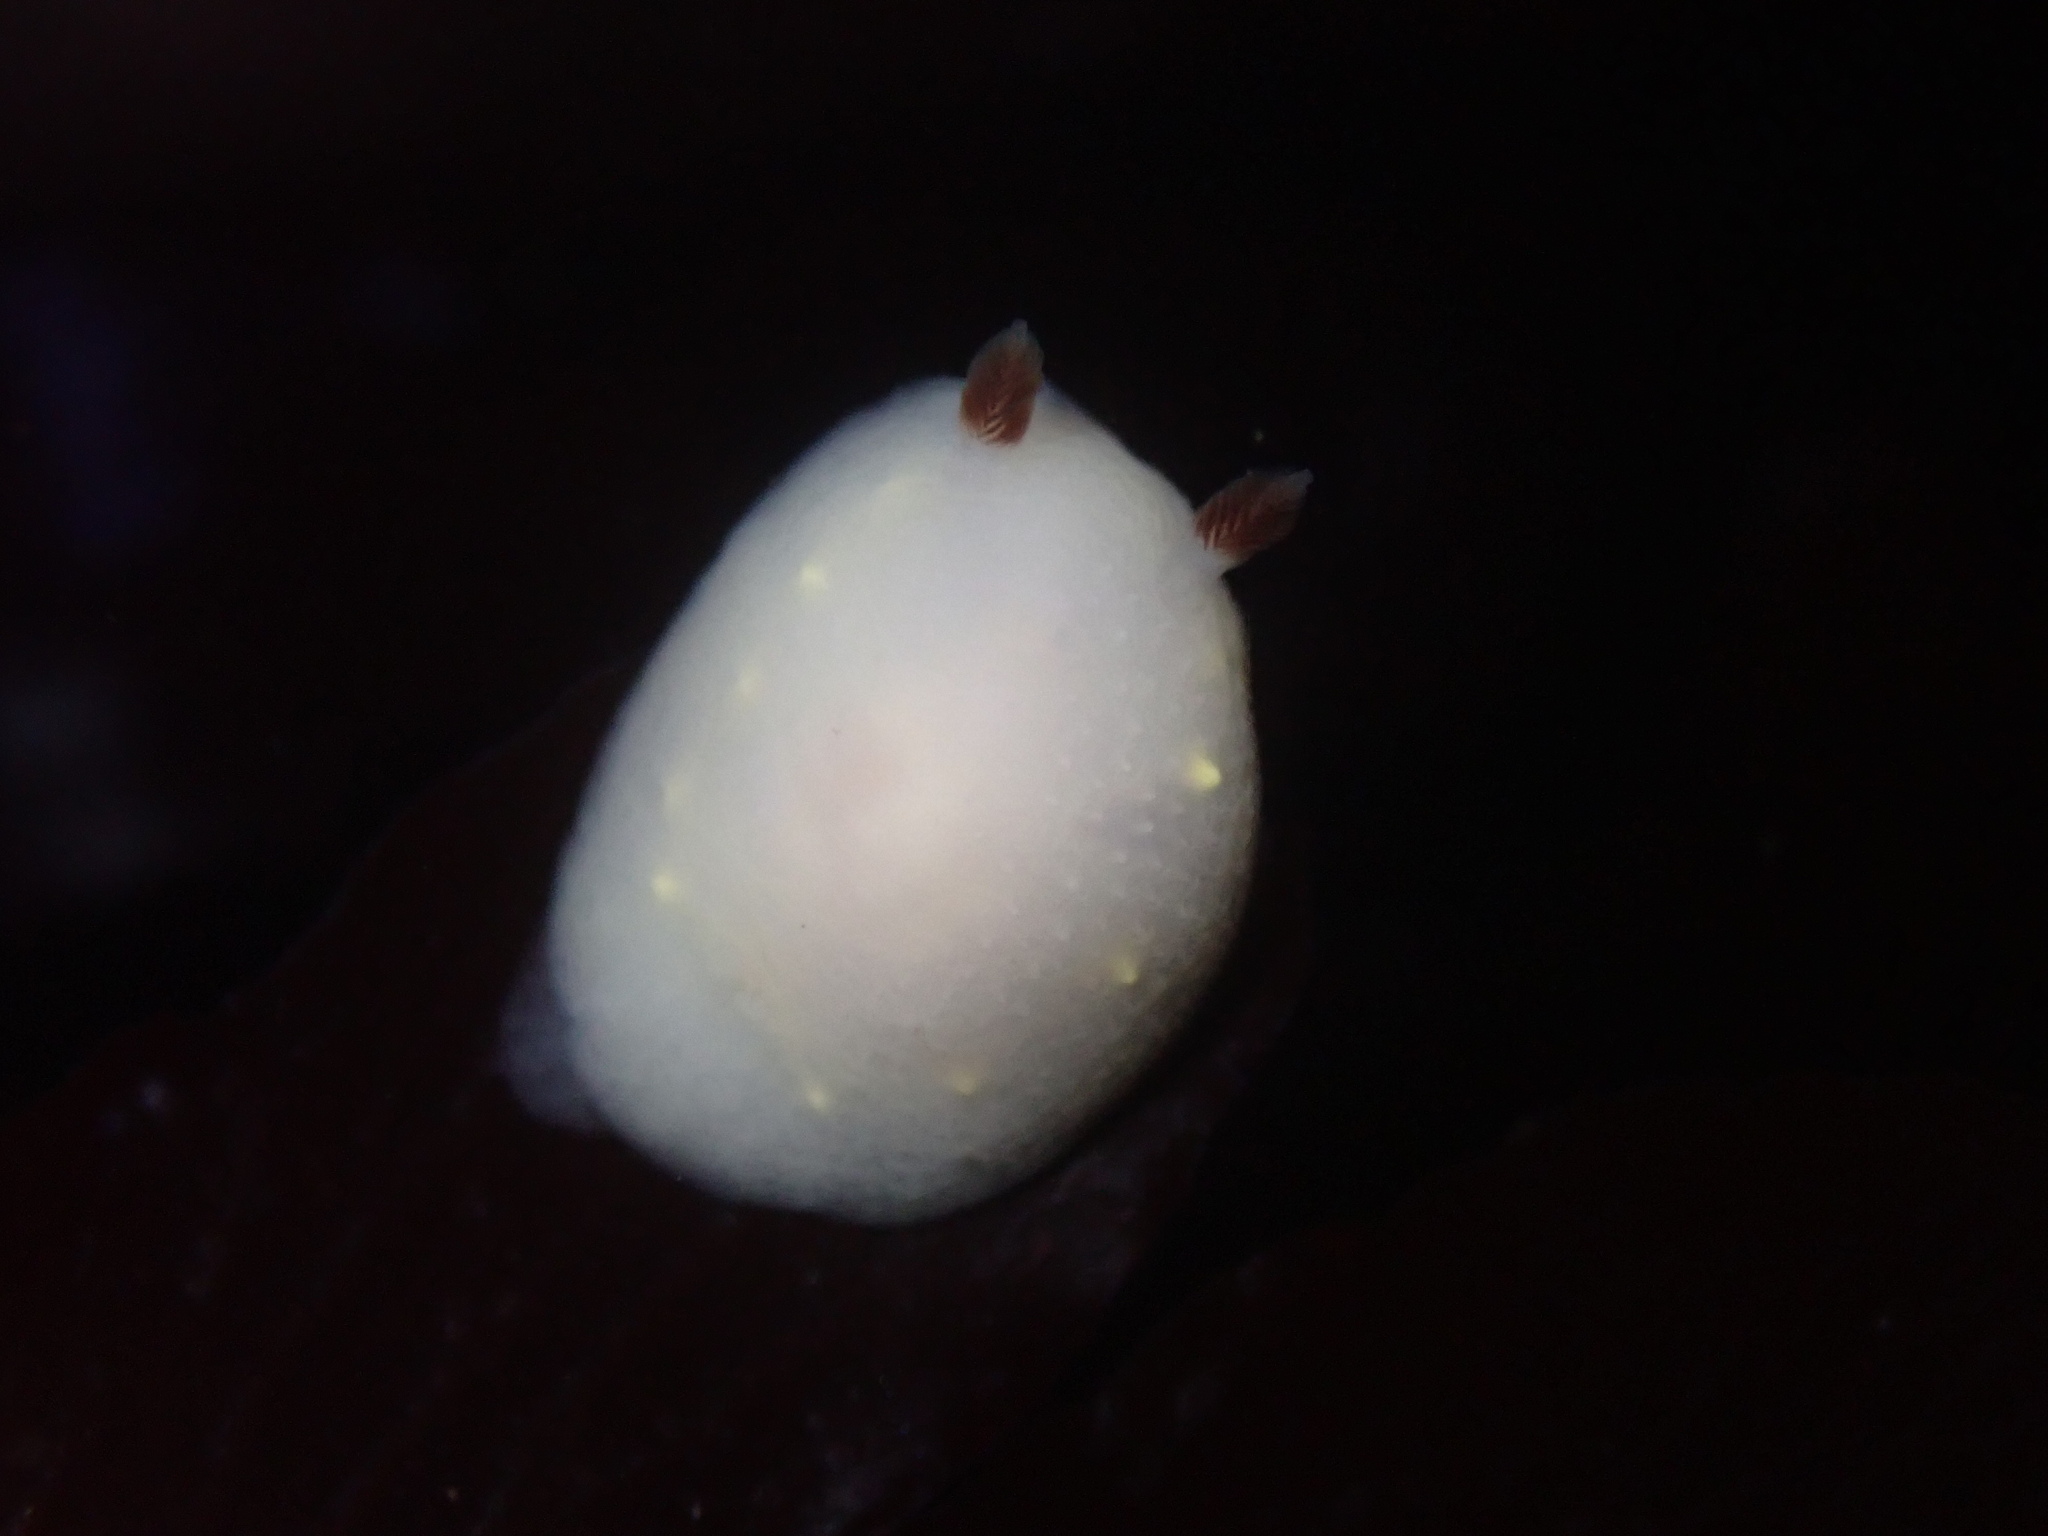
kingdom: Animalia
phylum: Mollusca
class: Gastropoda
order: Nudibranchia
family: Cadlinidae
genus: Cadlina
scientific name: Cadlina flavomaculata
